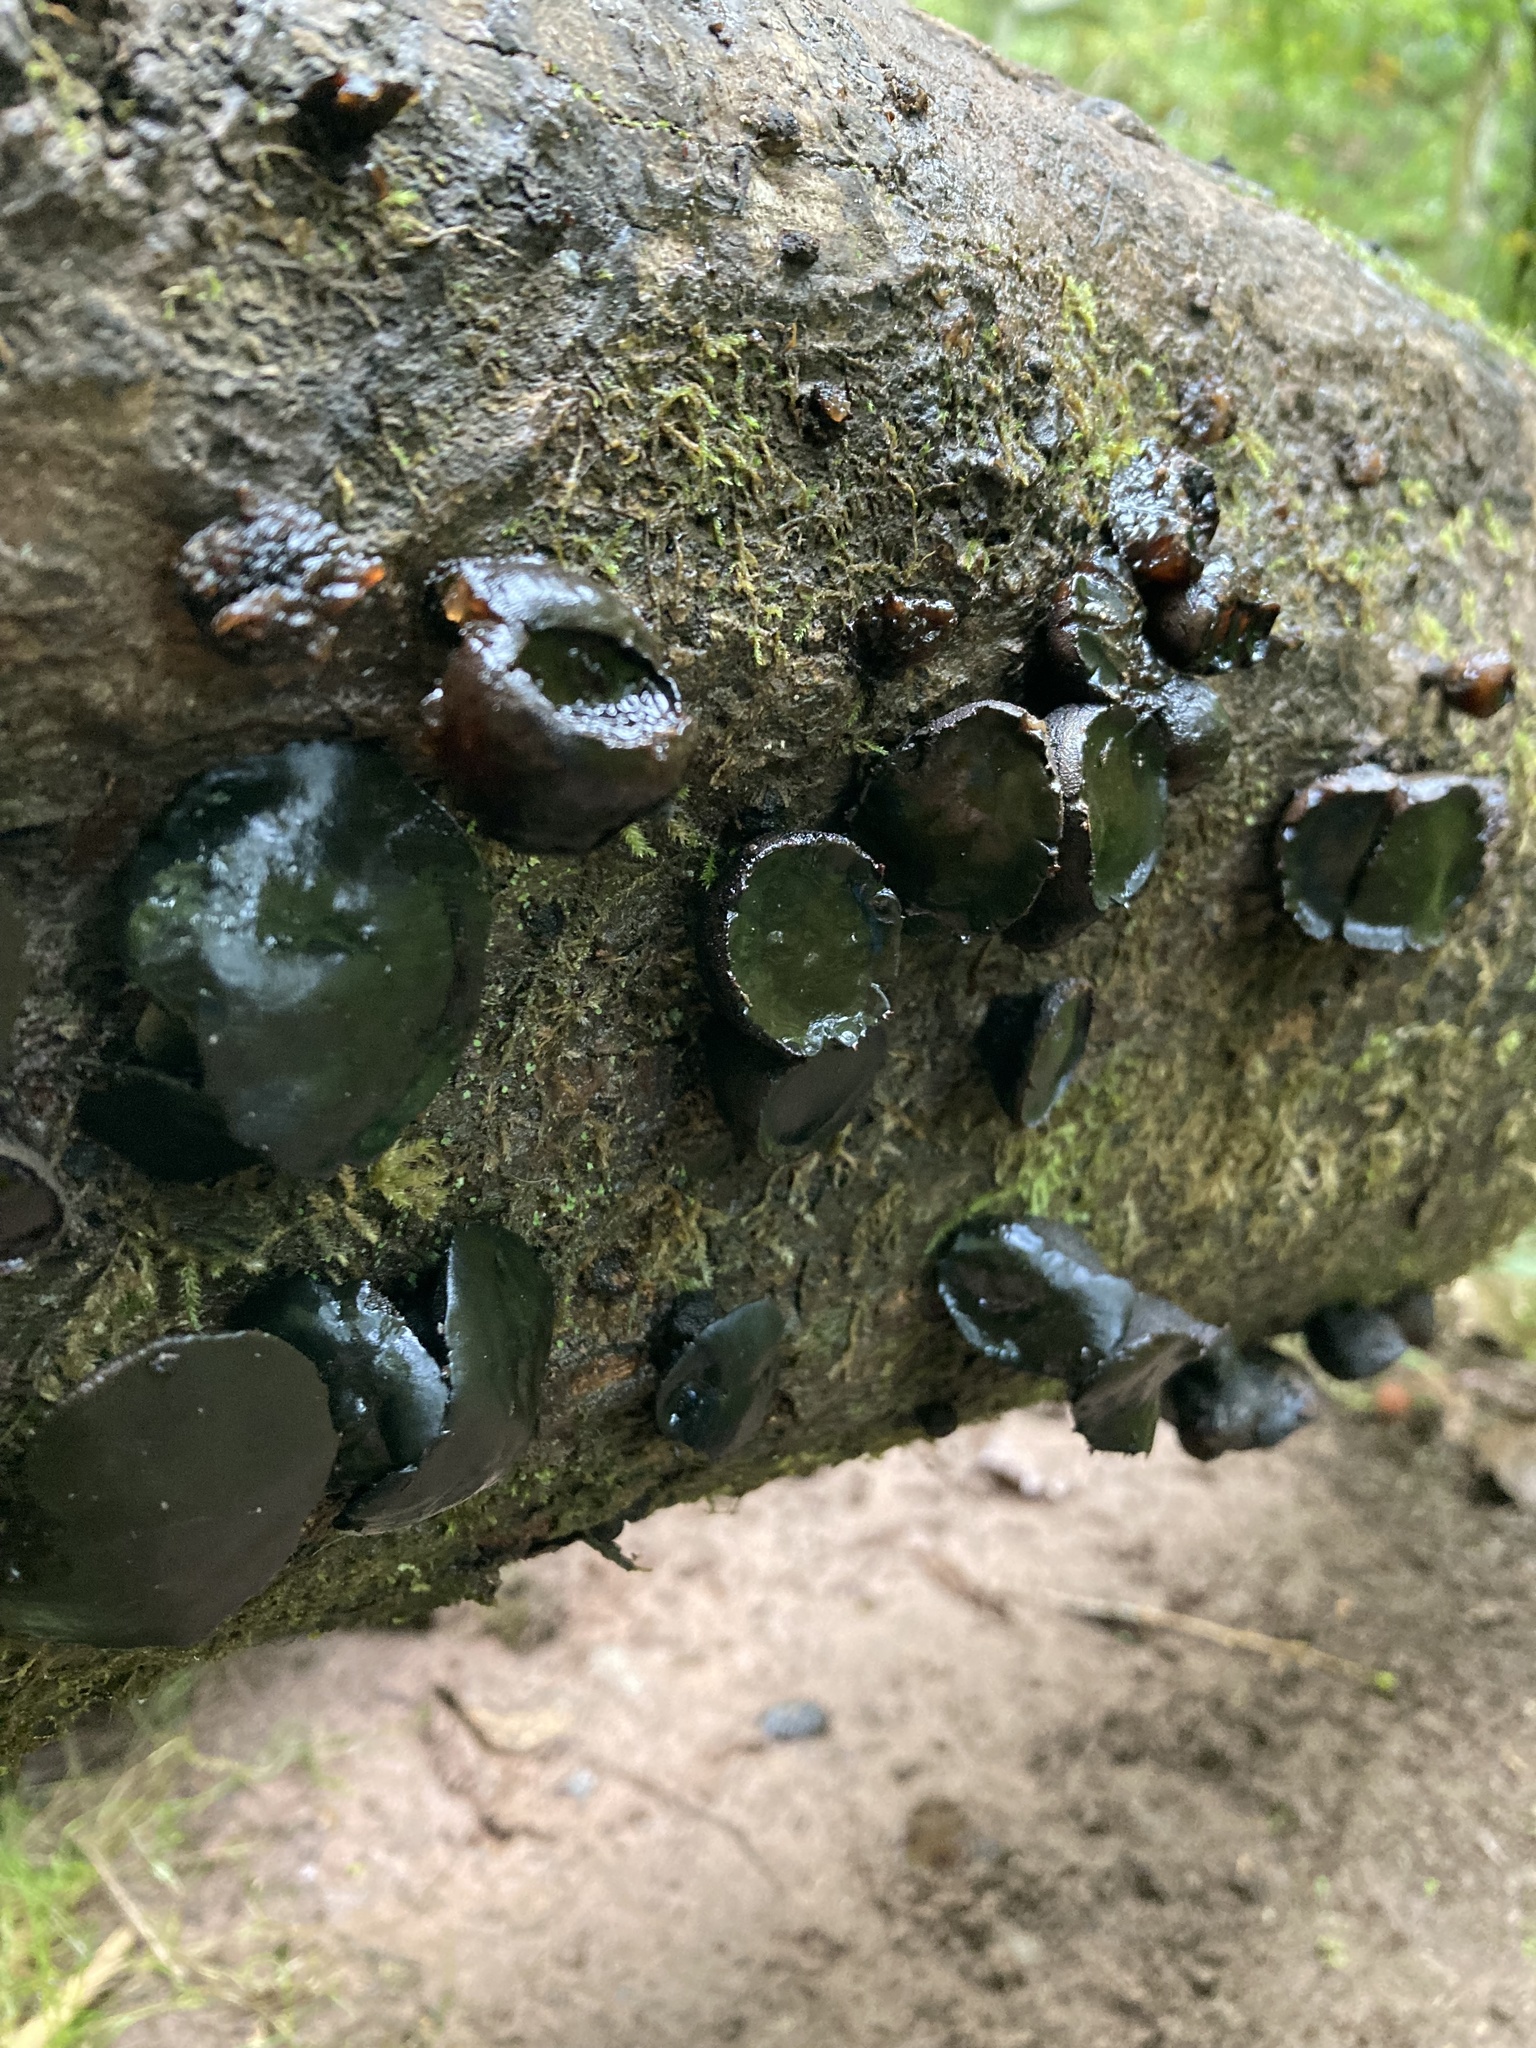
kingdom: Fungi
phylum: Ascomycota
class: Leotiomycetes
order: Phacidiales
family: Phacidiaceae
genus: Bulgaria
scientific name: Bulgaria inquinans
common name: Black bulgar
